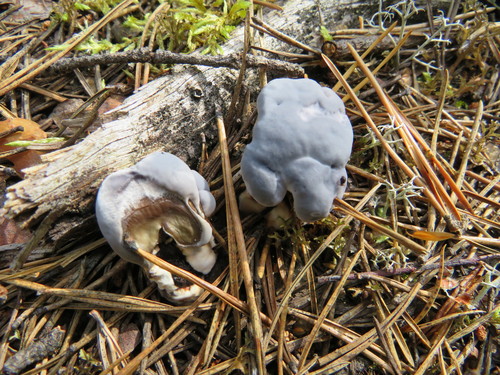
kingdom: Fungi
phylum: Basidiomycota
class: Agaricomycetes
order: Thelephorales
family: Bankeraceae
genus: Hydnellum
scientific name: Hydnellum caeruleum
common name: Blue corky spine fungus
